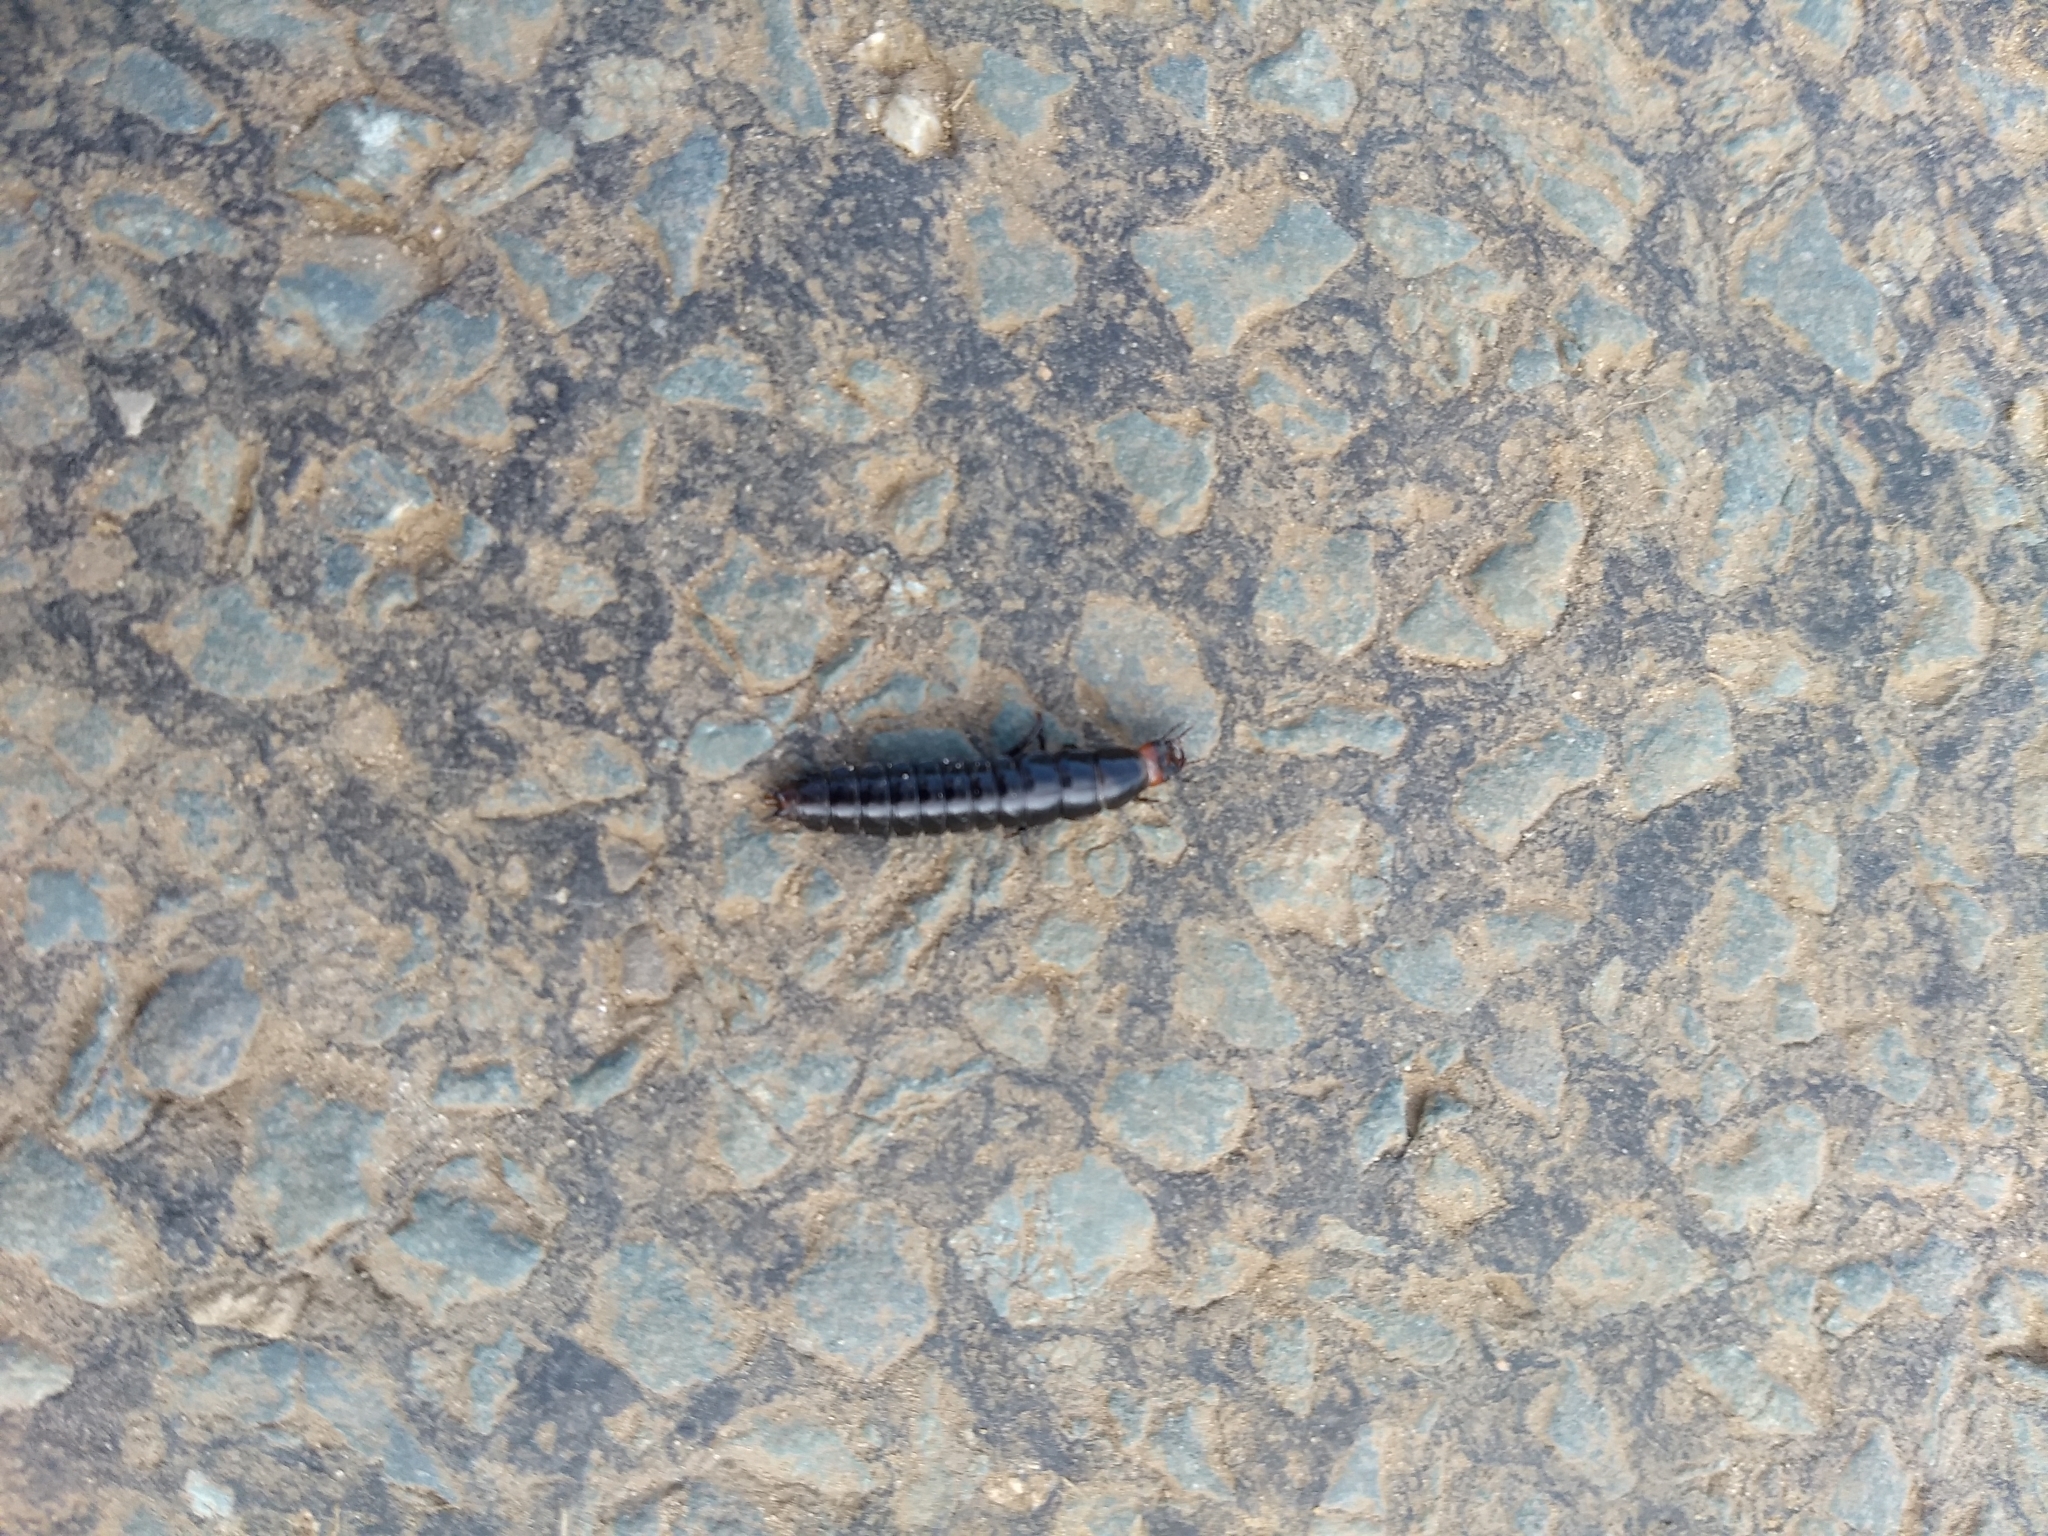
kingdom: Animalia
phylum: Arthropoda
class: Insecta
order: Coleoptera
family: Carabidae
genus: Carabus
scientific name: Carabus violaceus
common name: Violet ground beetle
